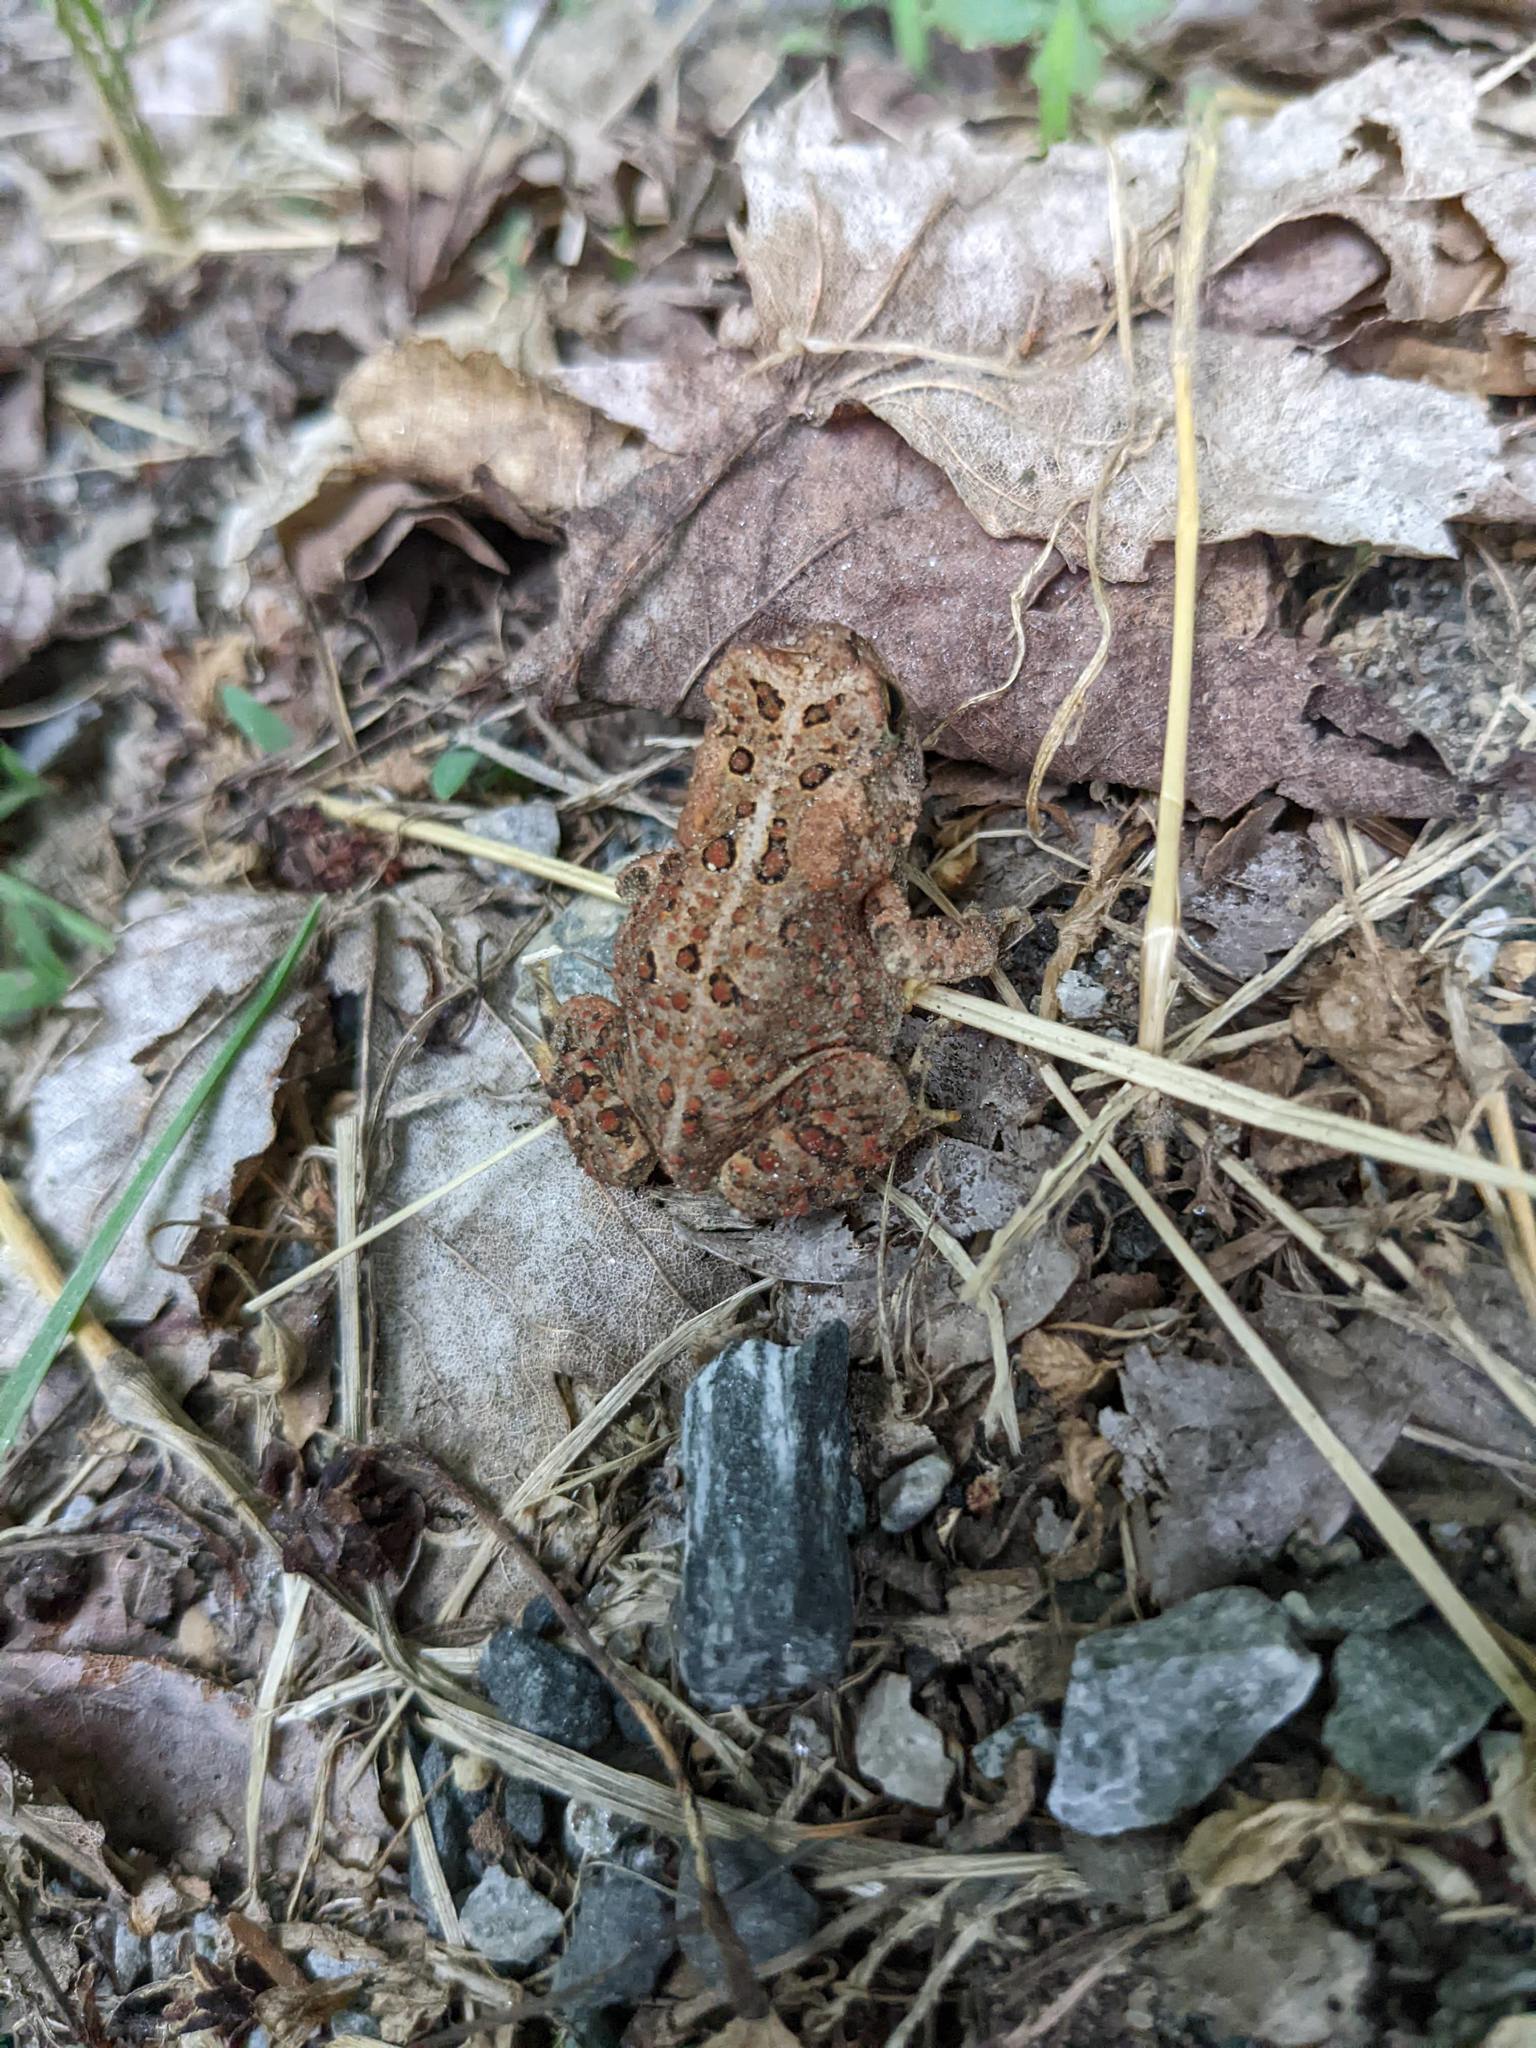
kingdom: Animalia
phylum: Chordata
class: Amphibia
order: Anura
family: Bufonidae
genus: Anaxyrus
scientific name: Anaxyrus americanus
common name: American toad
